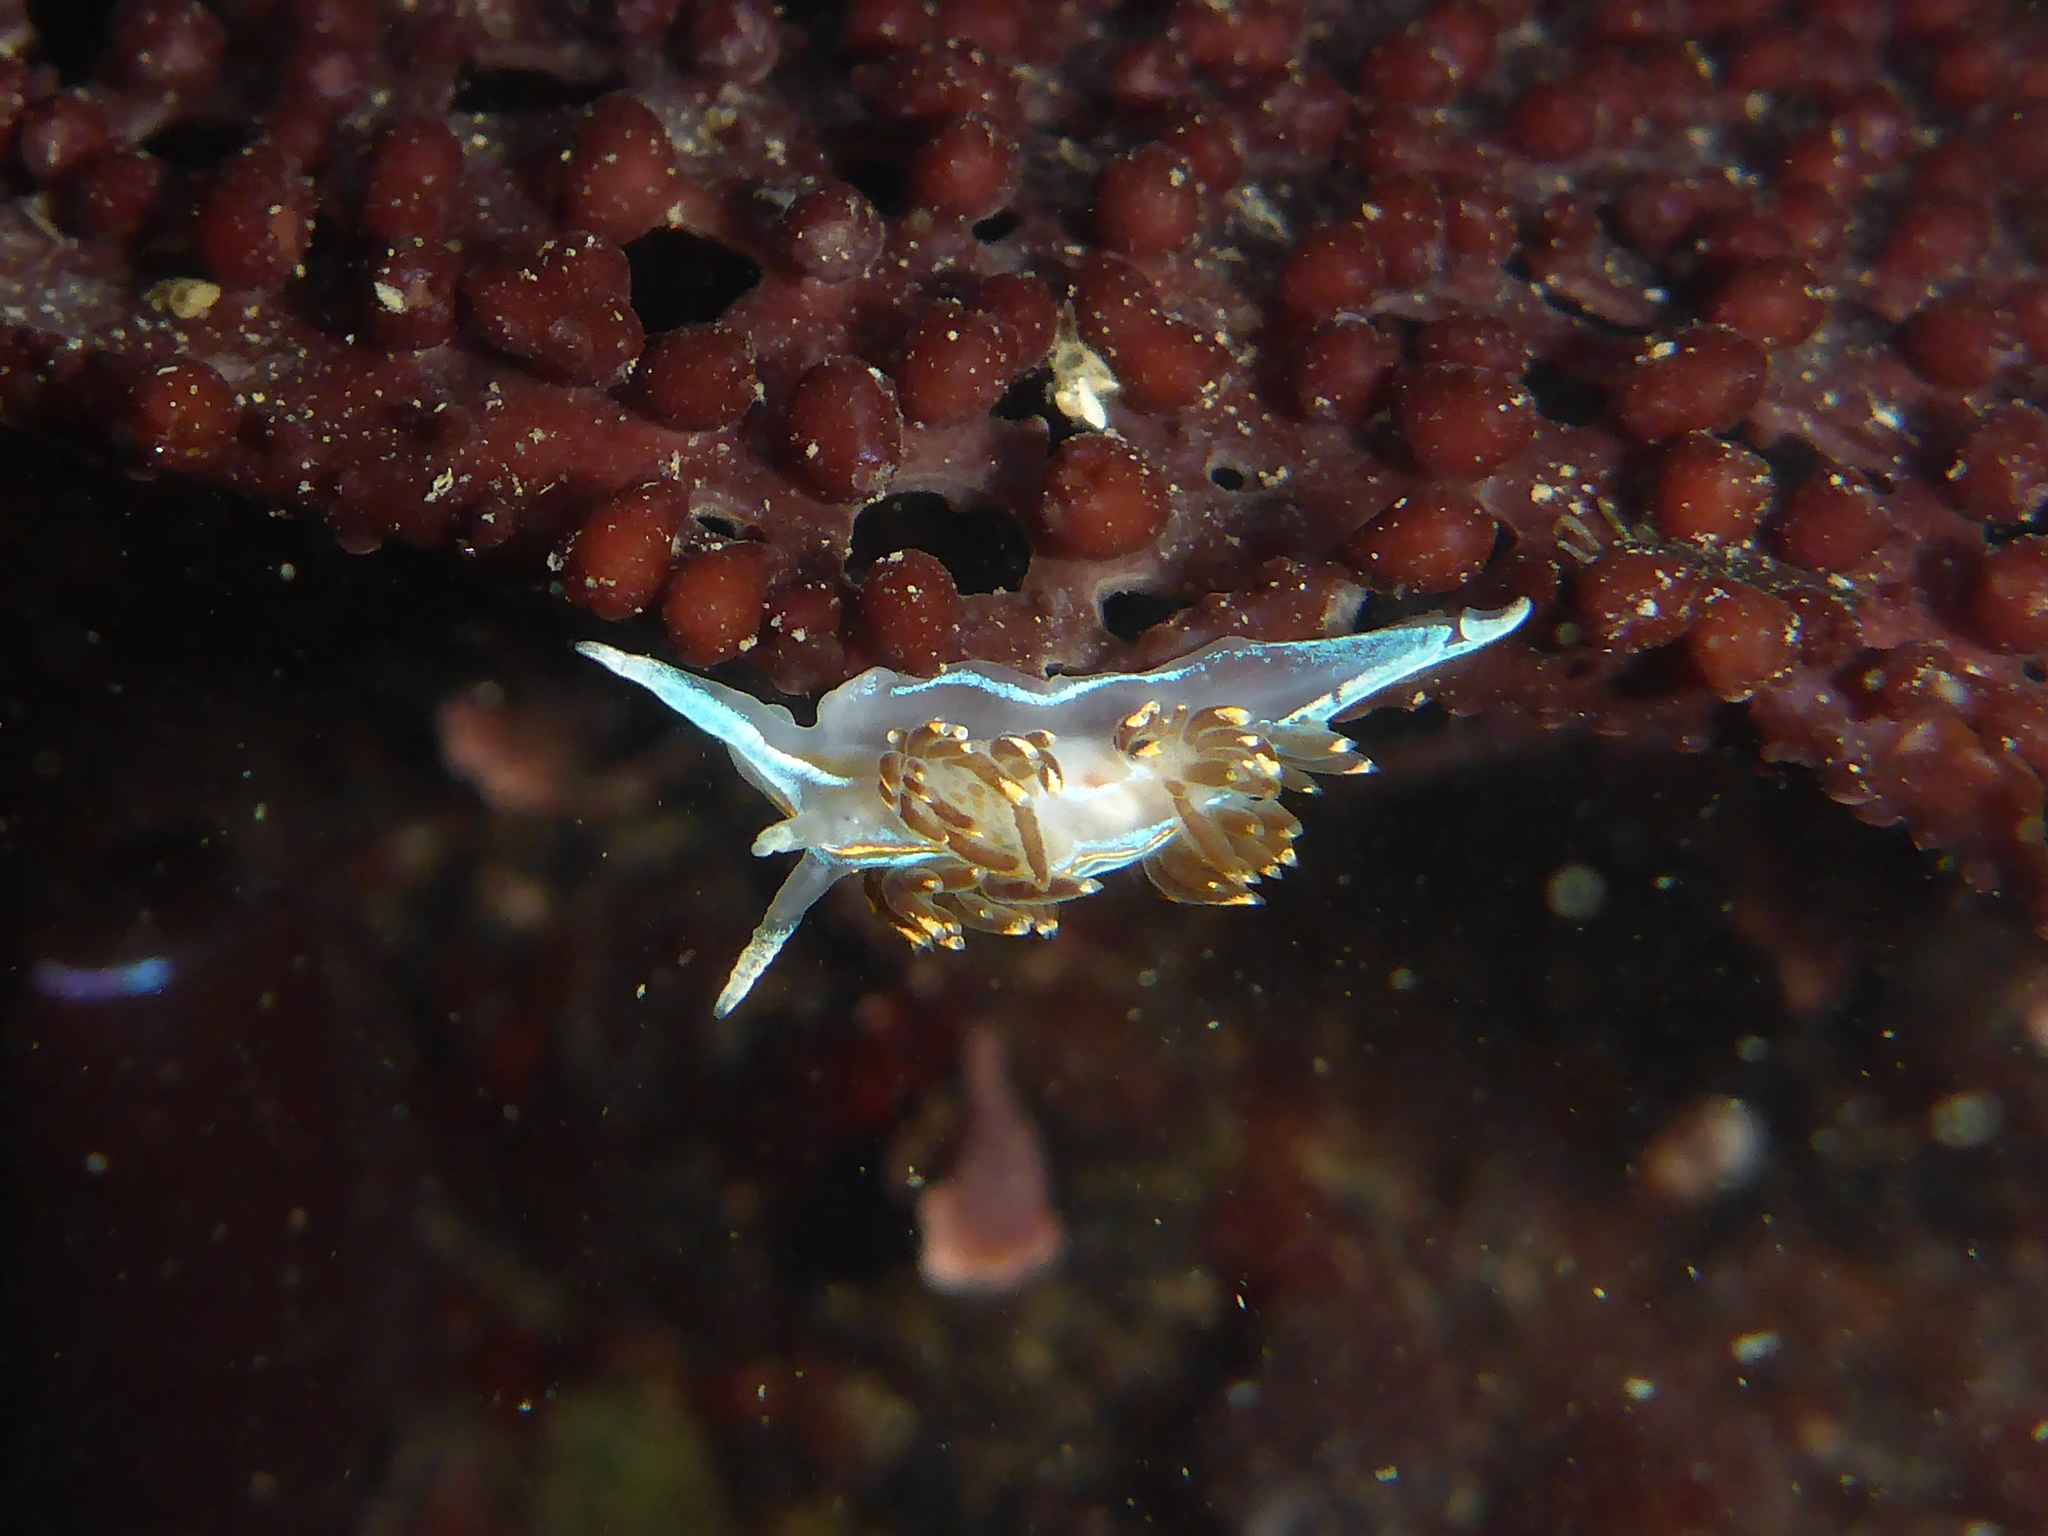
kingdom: Animalia
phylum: Mollusca
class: Gastropoda
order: Nudibranchia
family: Myrrhinidae
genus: Hermissenda
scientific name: Hermissenda opalescens
